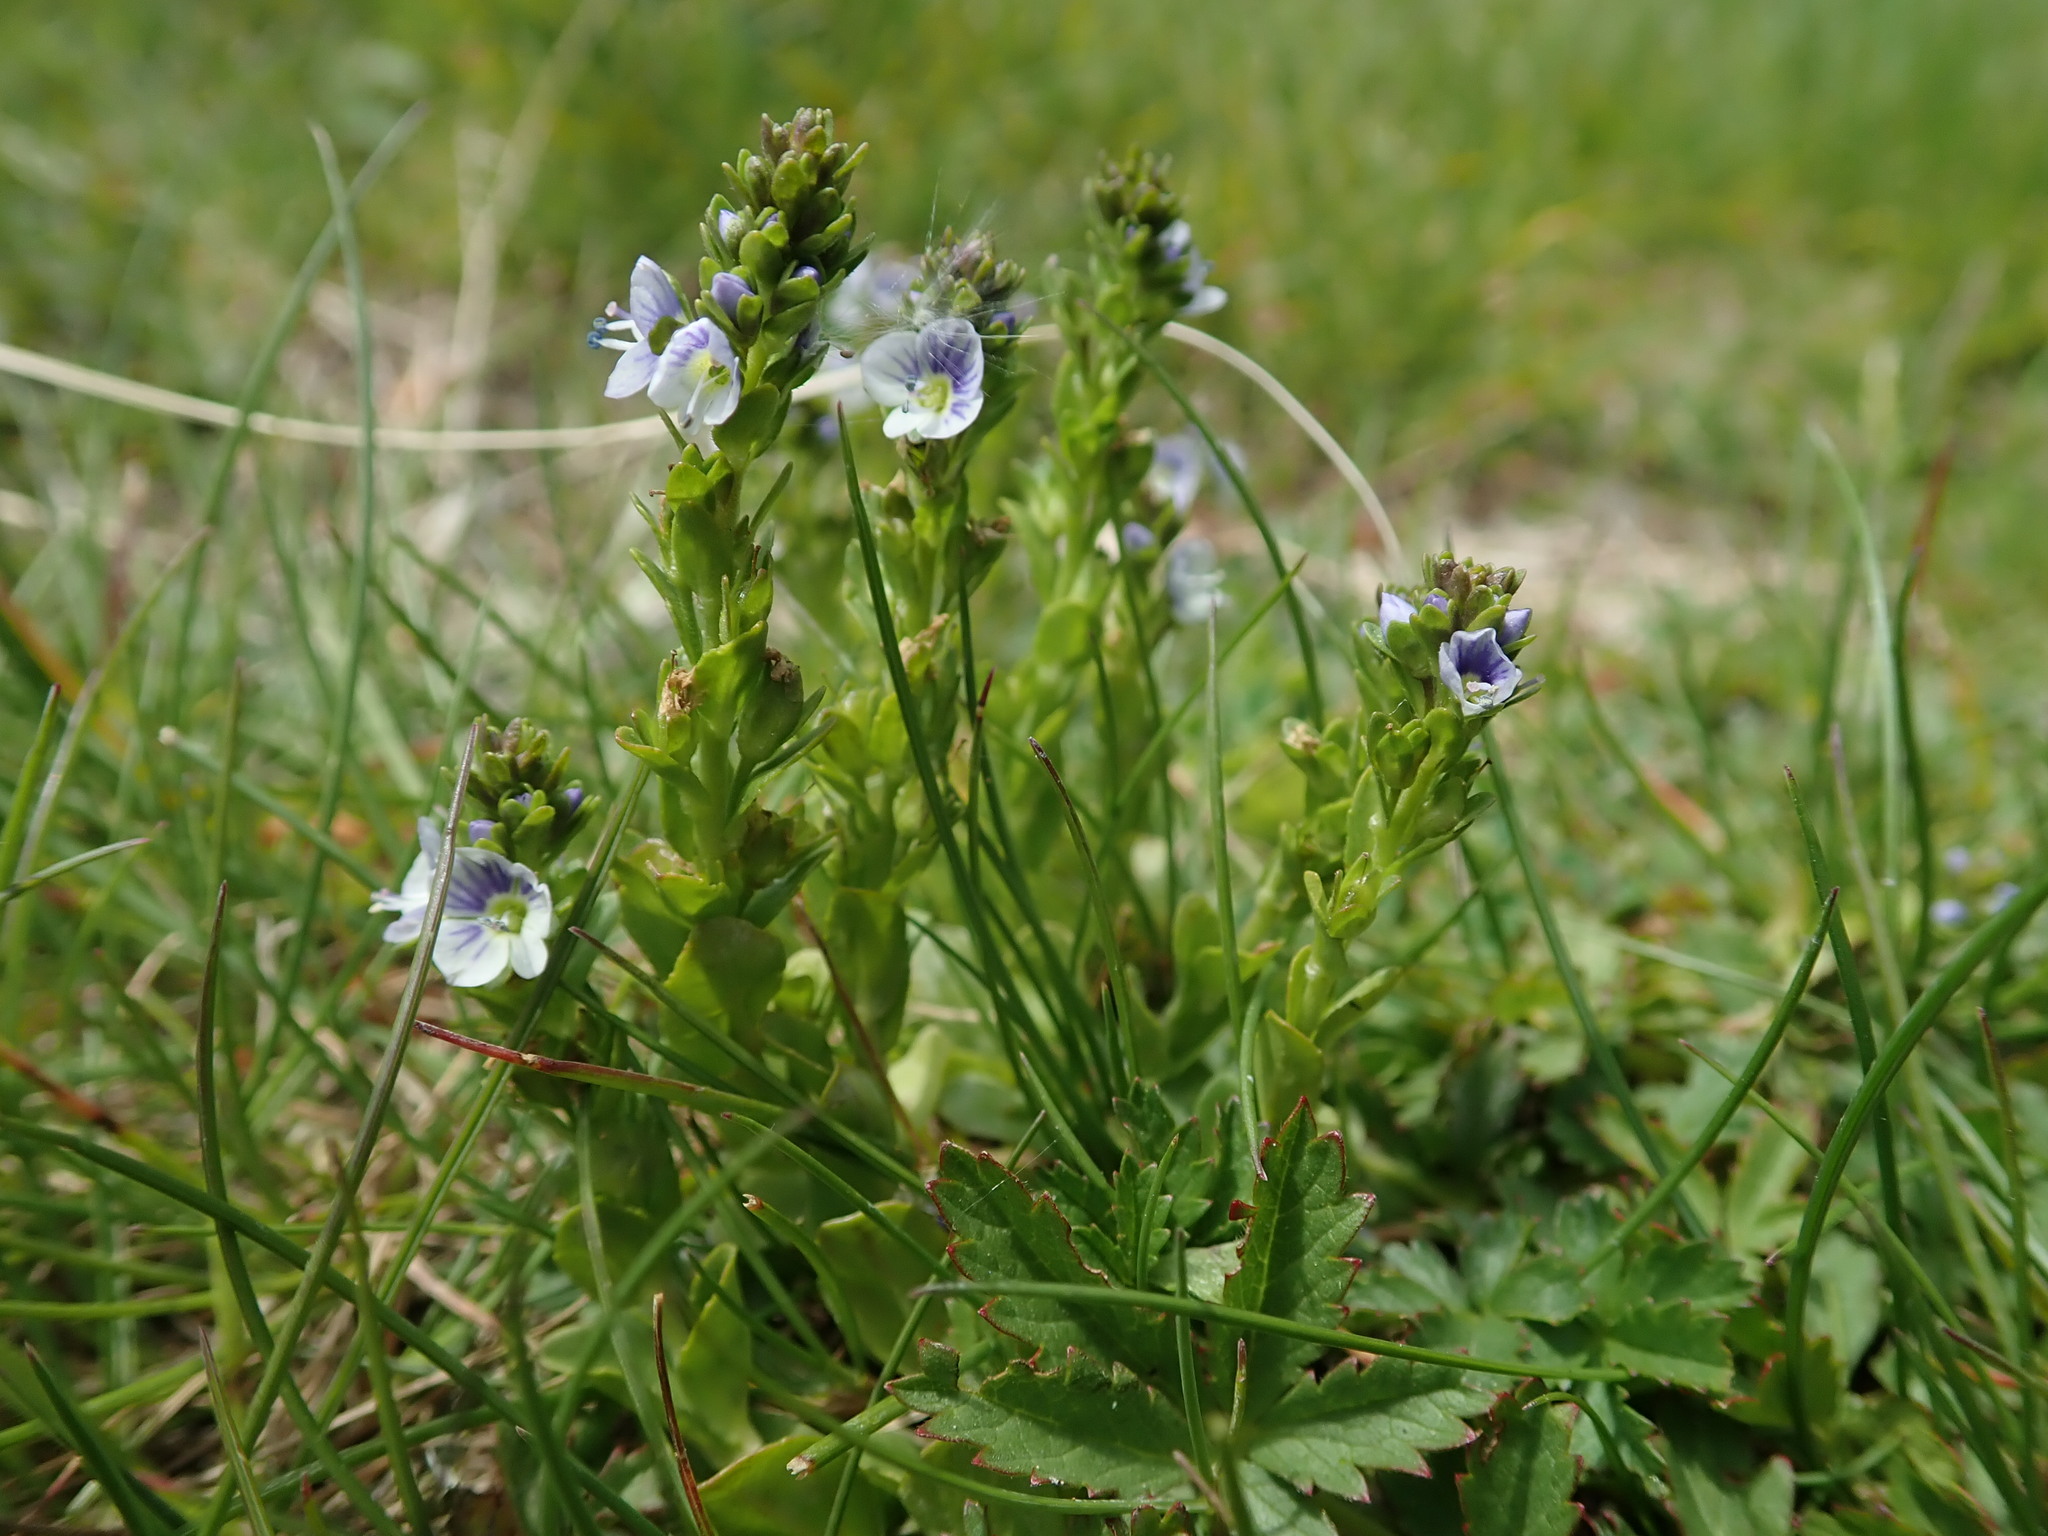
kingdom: Plantae
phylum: Tracheophyta
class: Magnoliopsida
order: Lamiales
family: Plantaginaceae
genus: Veronica
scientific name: Veronica serpyllifolia
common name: Thyme-leaved speedwell
